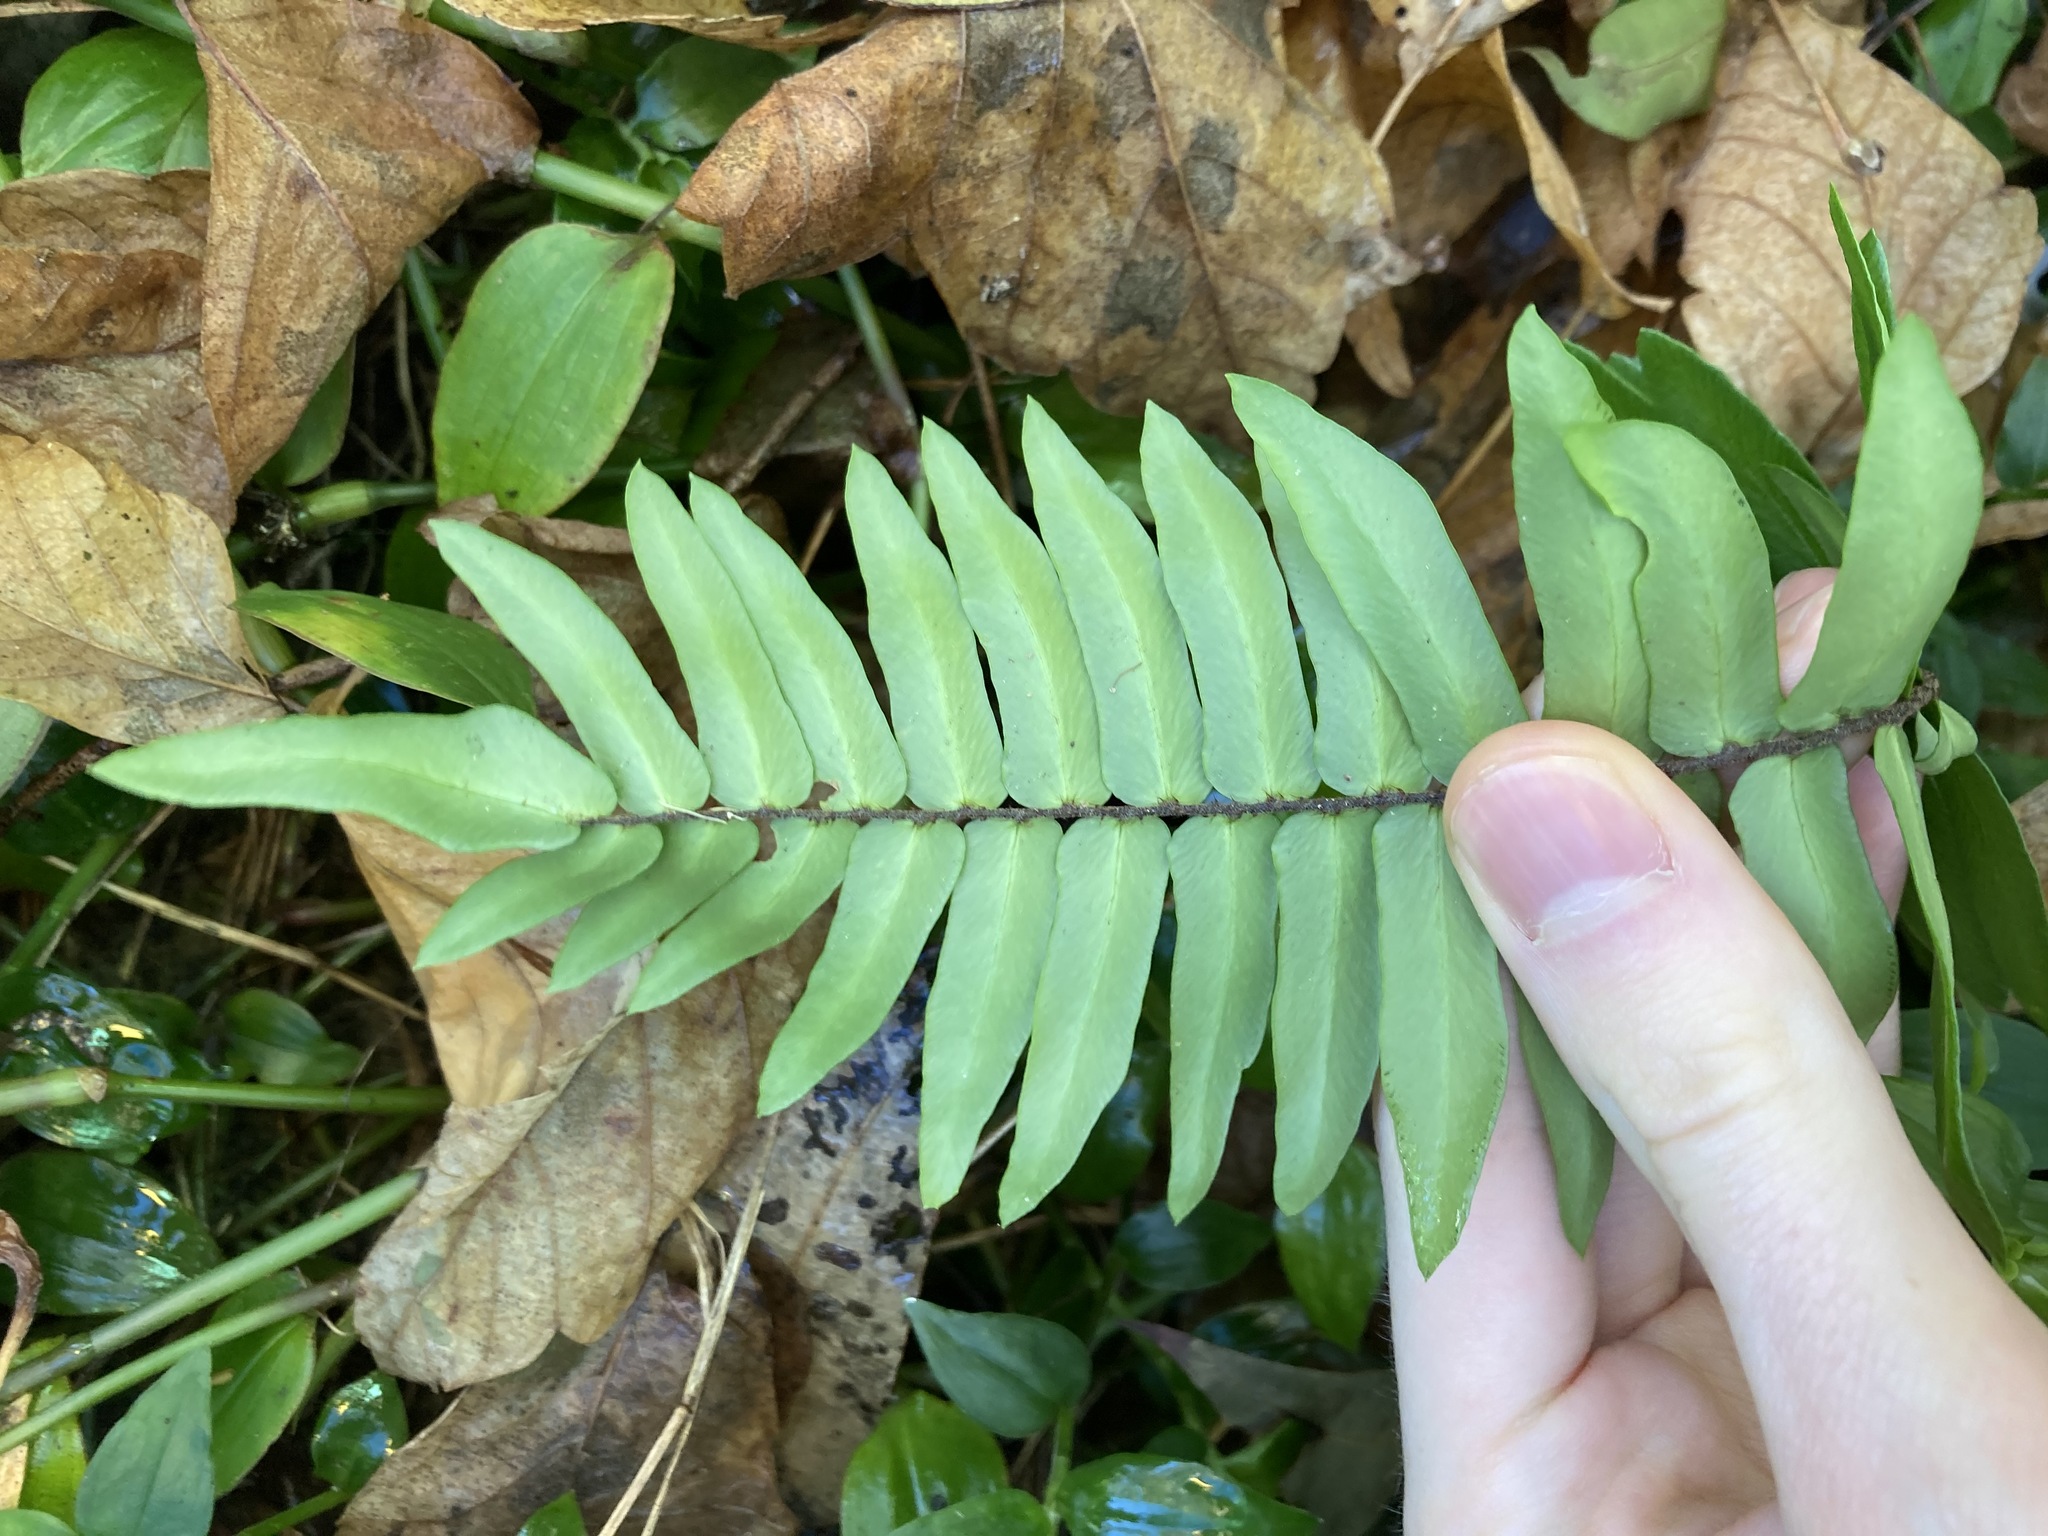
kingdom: Plantae
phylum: Tracheophyta
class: Polypodiopsida
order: Polypodiales
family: Pteridaceae
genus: Pellaea
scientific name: Pellaea falcata
